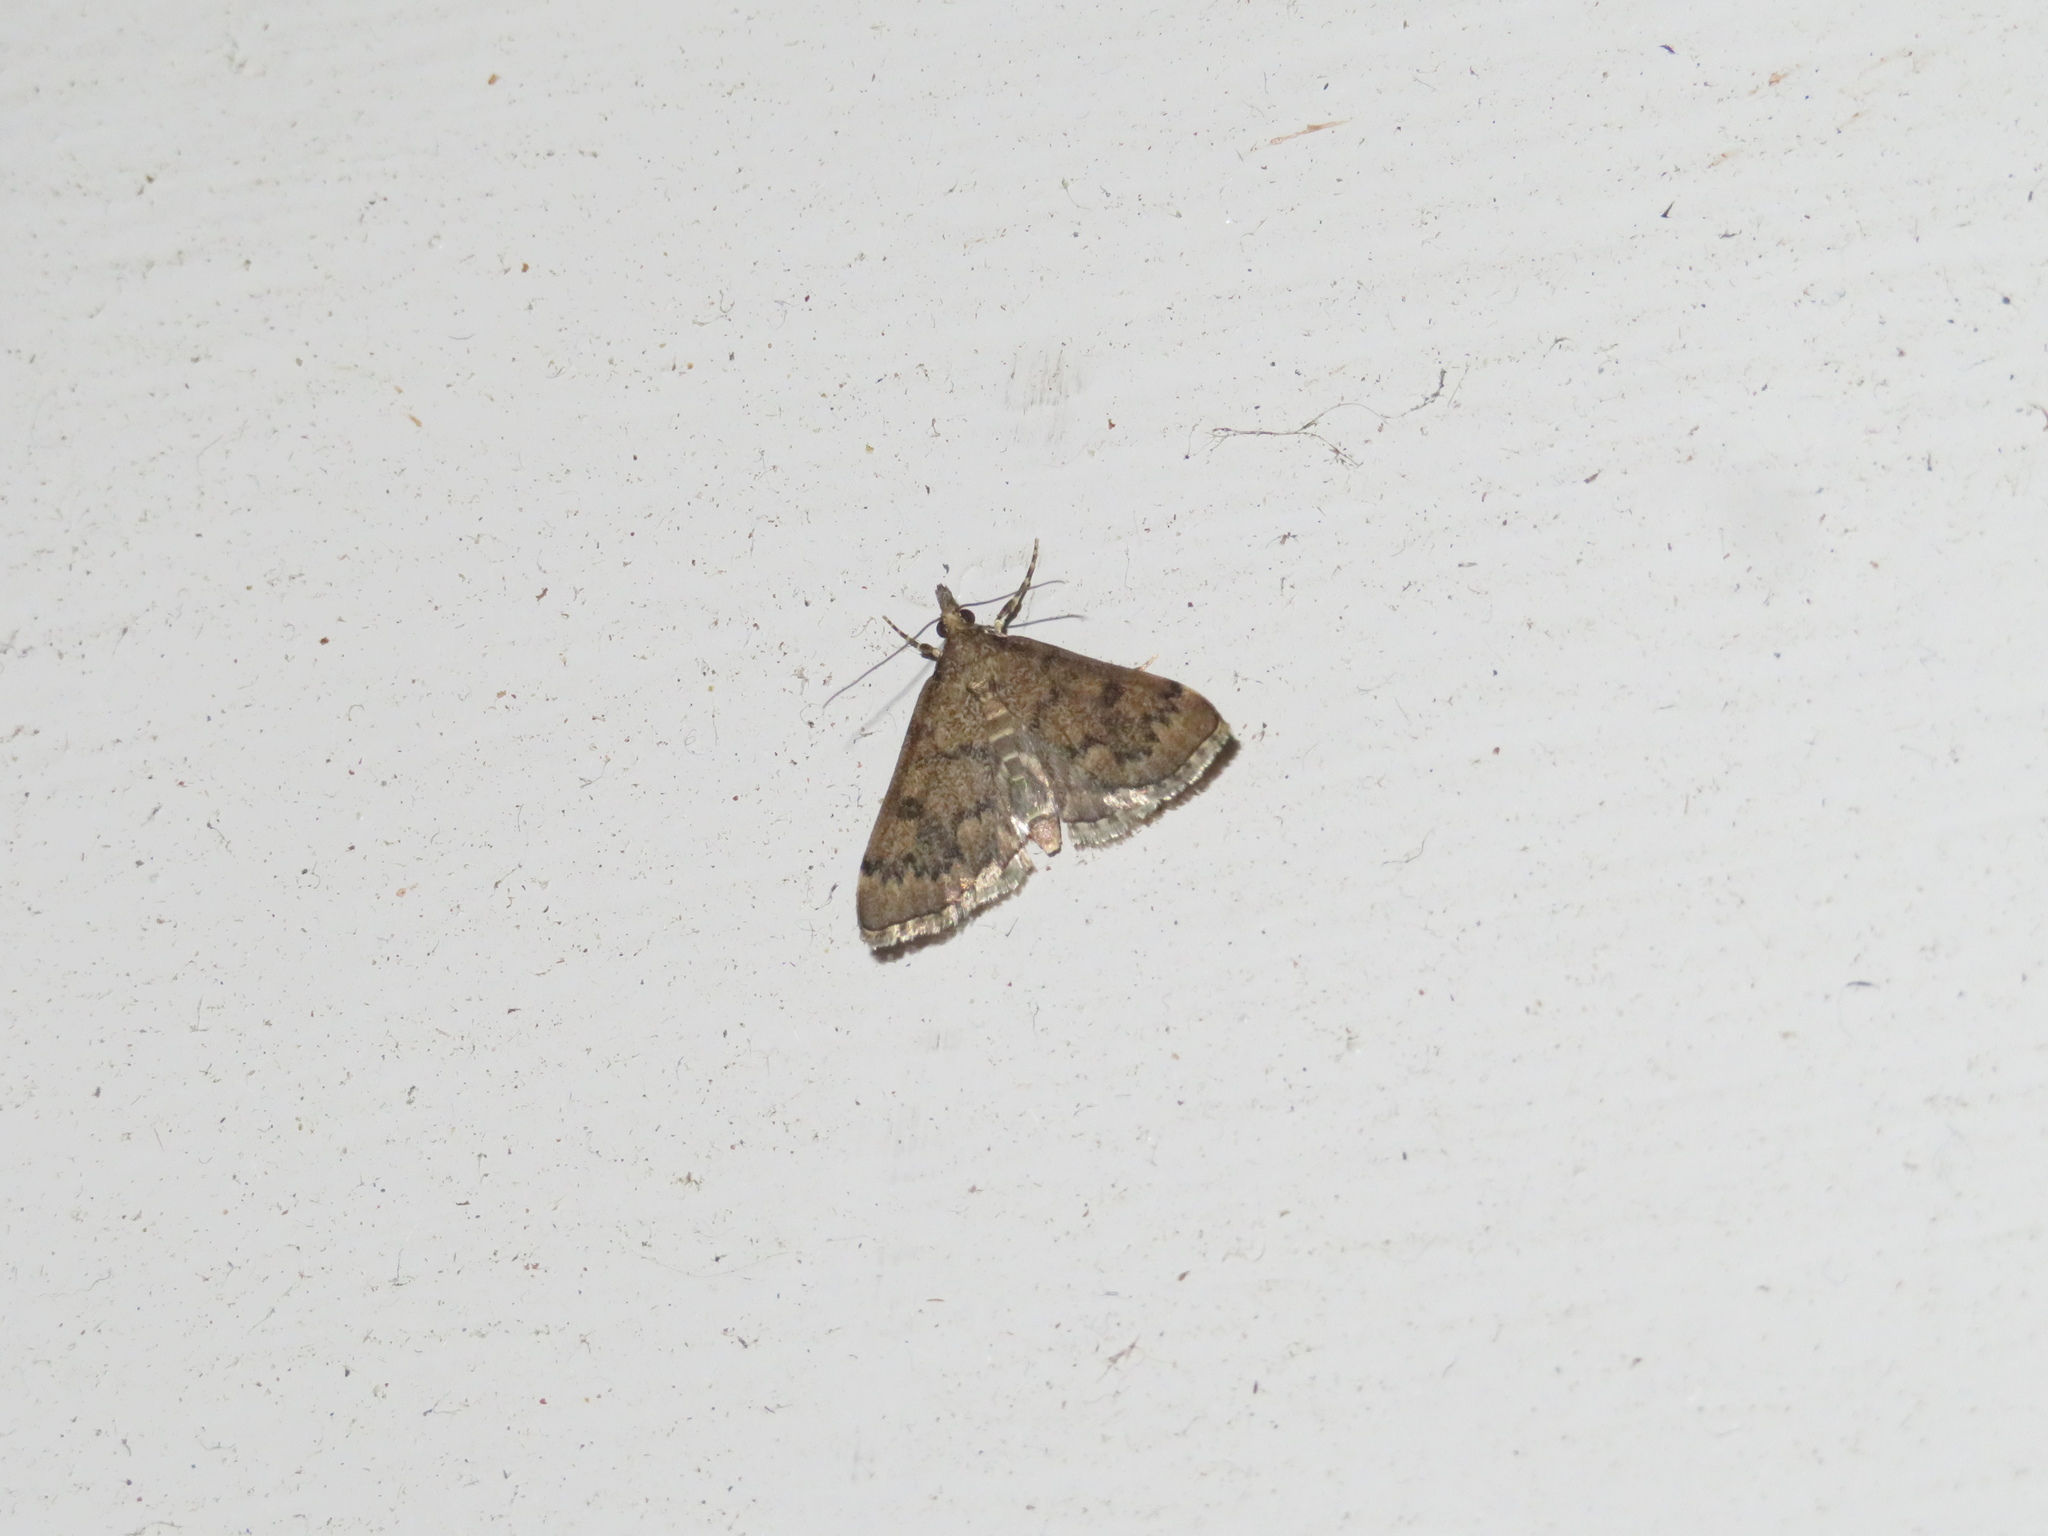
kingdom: Animalia
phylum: Arthropoda
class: Insecta
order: Lepidoptera
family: Crambidae
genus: Loxostege
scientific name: Loxostege Proternia philocapna
